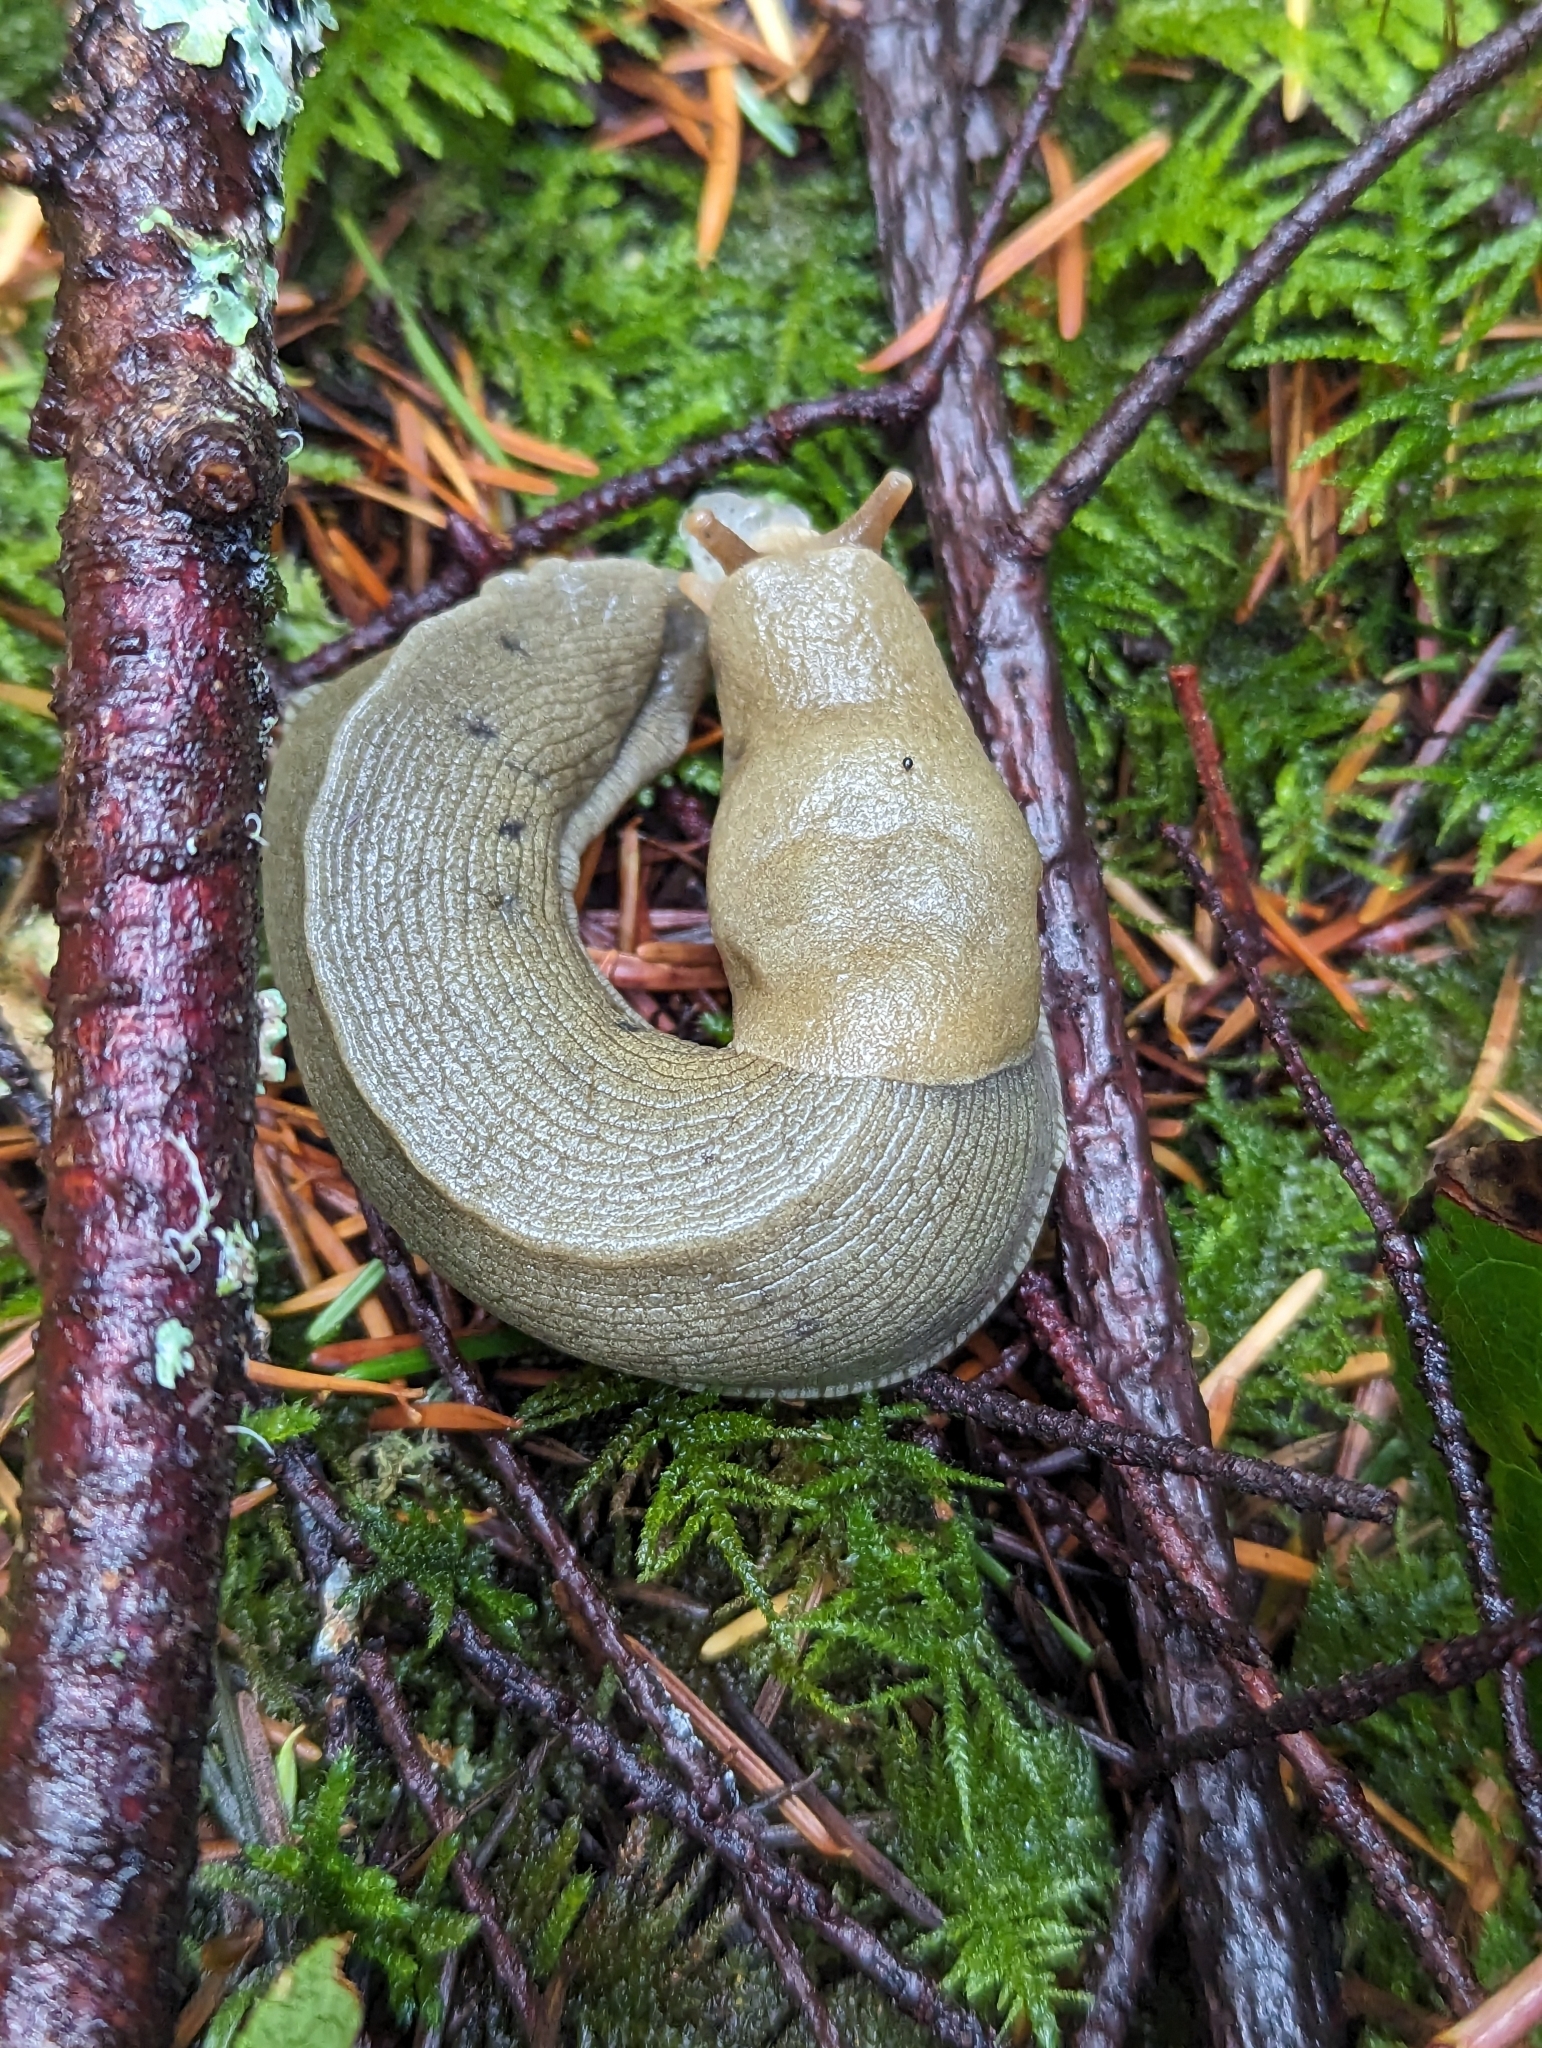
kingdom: Animalia
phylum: Mollusca
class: Gastropoda
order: Stylommatophora
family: Ariolimacidae
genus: Ariolimax
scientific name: Ariolimax columbianus
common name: Pacific banana slug
